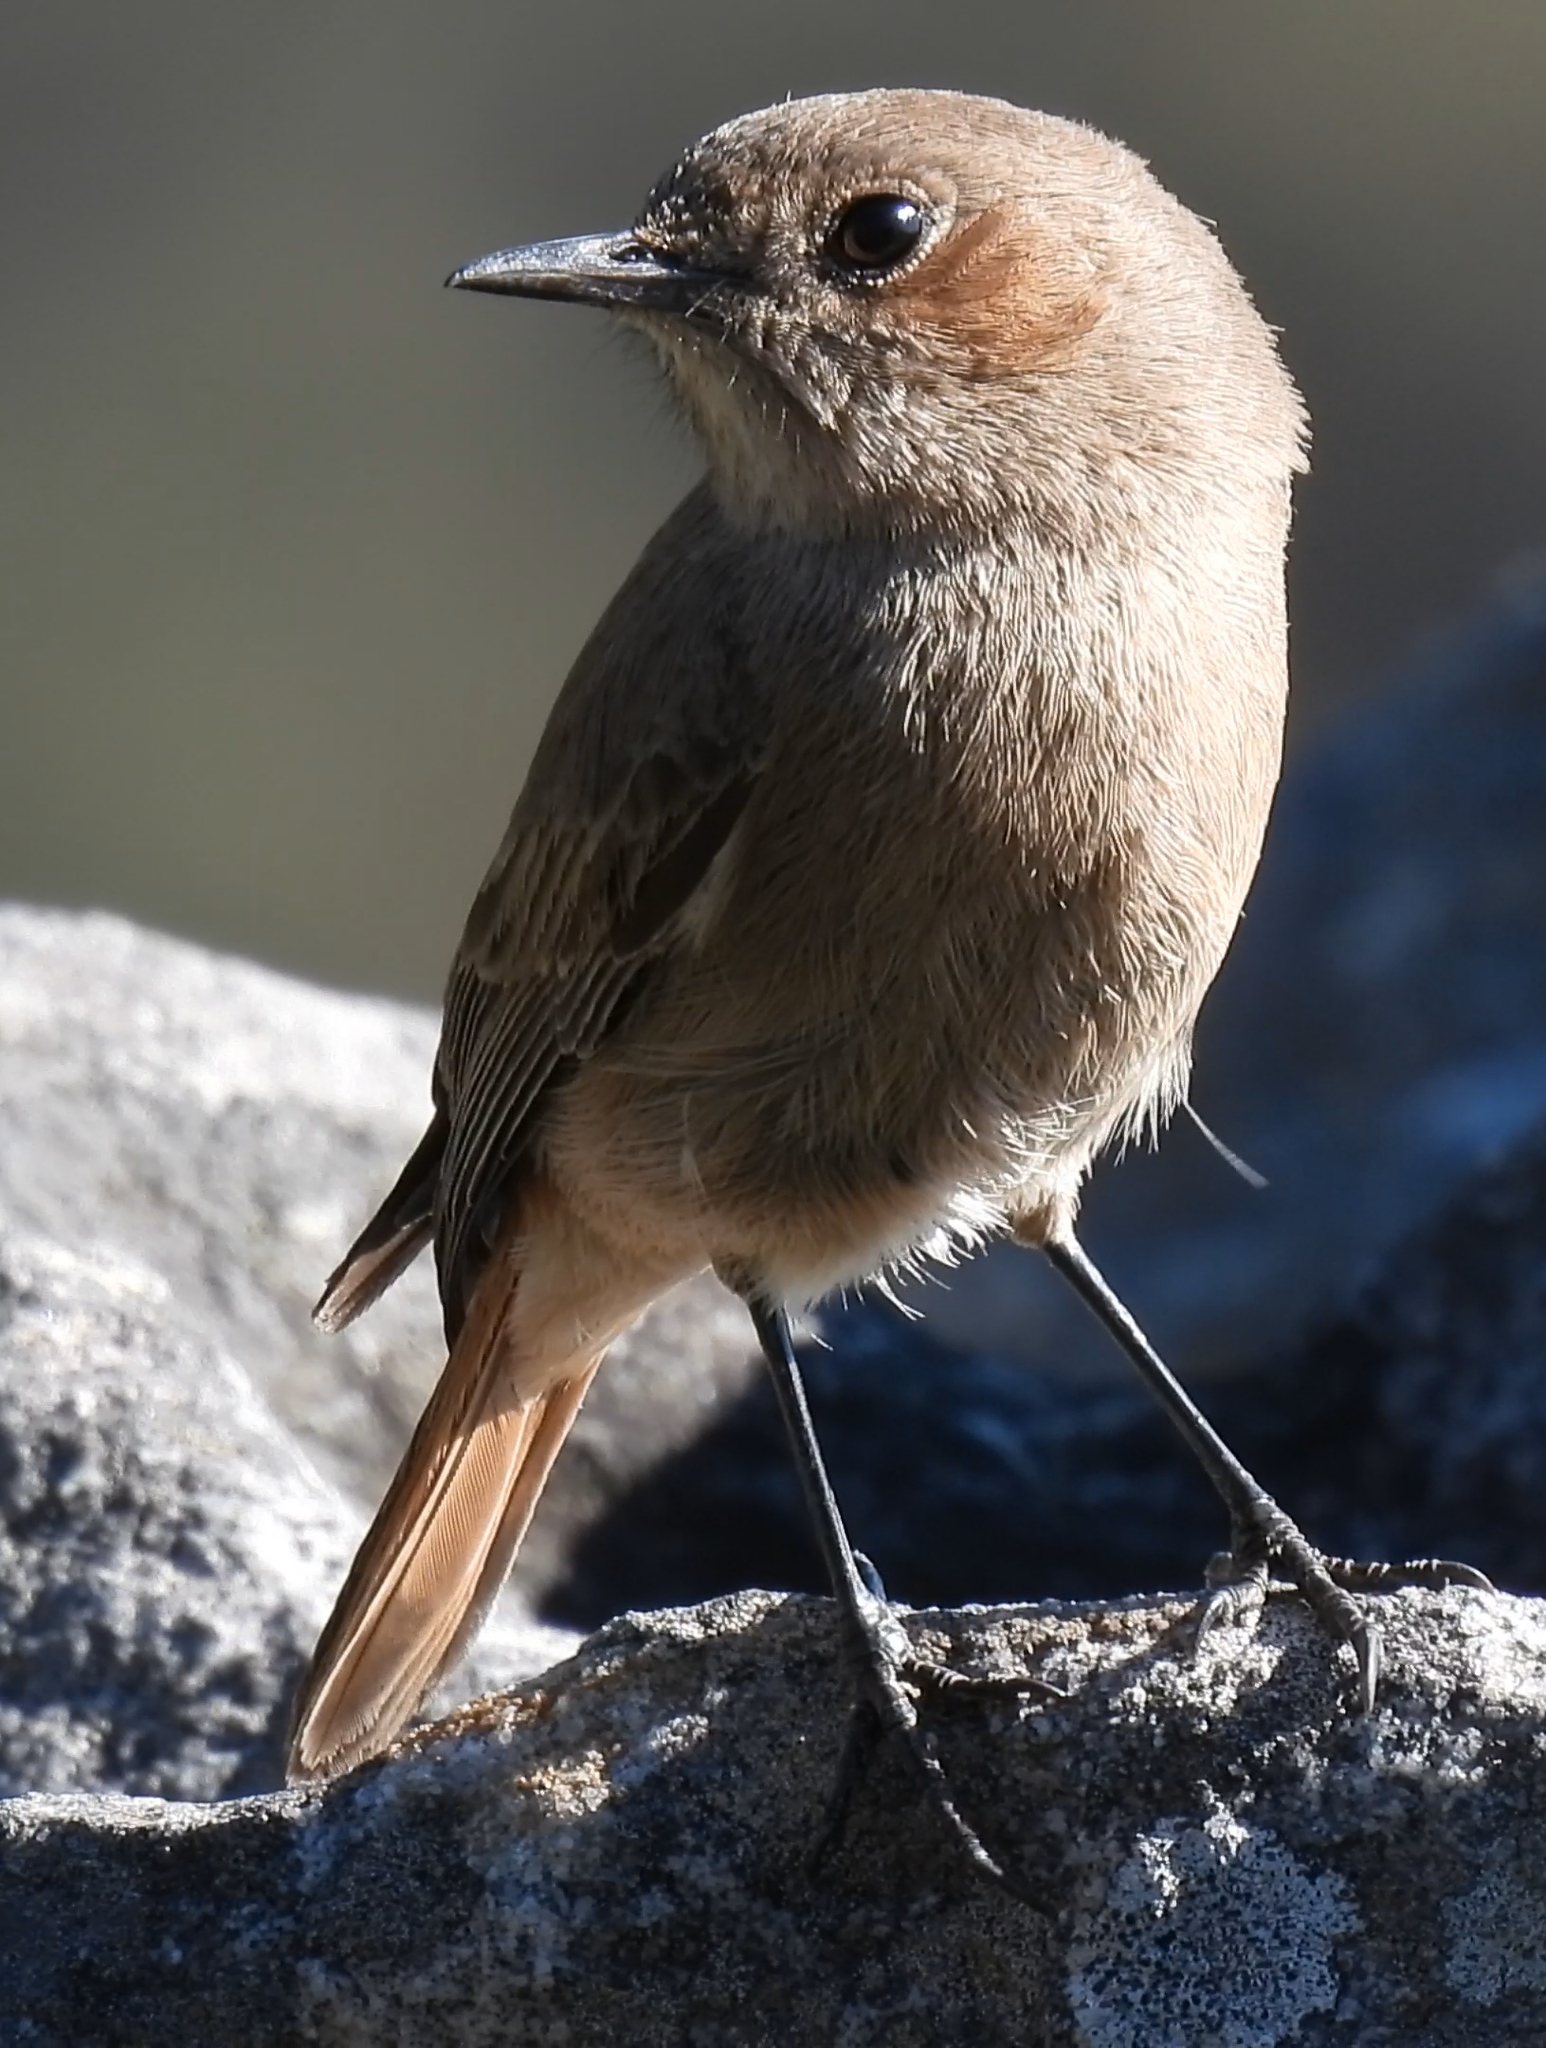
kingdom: Animalia
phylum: Chordata
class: Aves
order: Passeriformes
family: Muscicapidae
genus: Oenanthe
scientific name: Oenanthe familiaris
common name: Familiar chat
